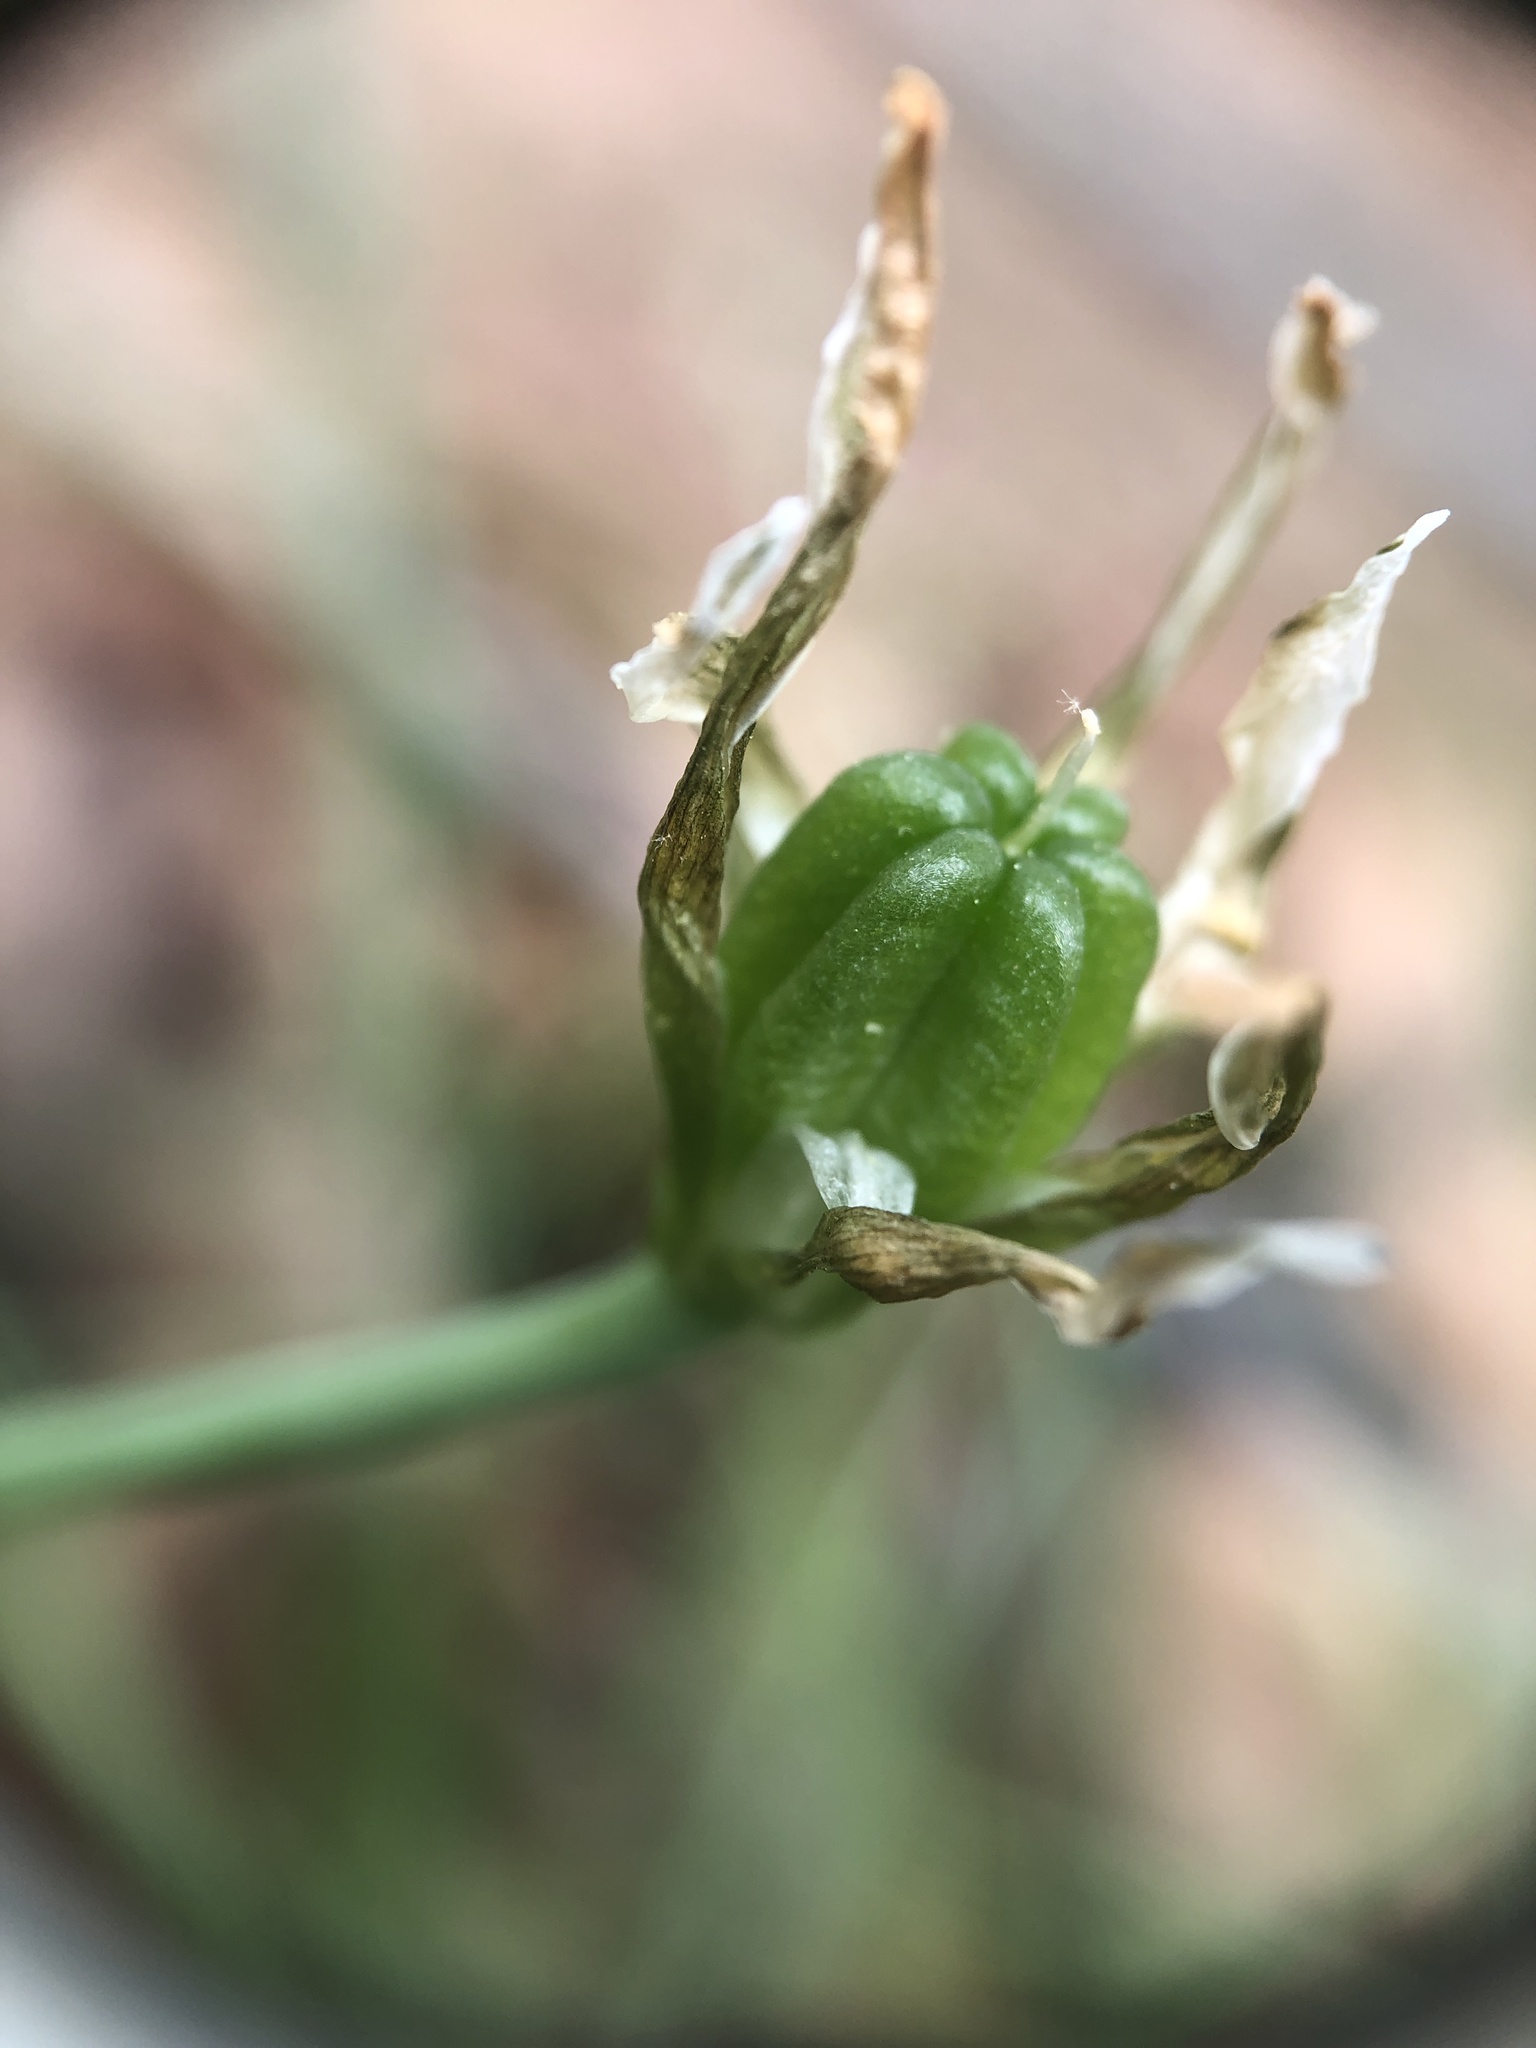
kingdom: Plantae
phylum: Tracheophyta
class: Liliopsida
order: Asparagales
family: Asparagaceae
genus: Ornithogalum
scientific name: Ornithogalum umbellatum
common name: Garden star-of-bethlehem
